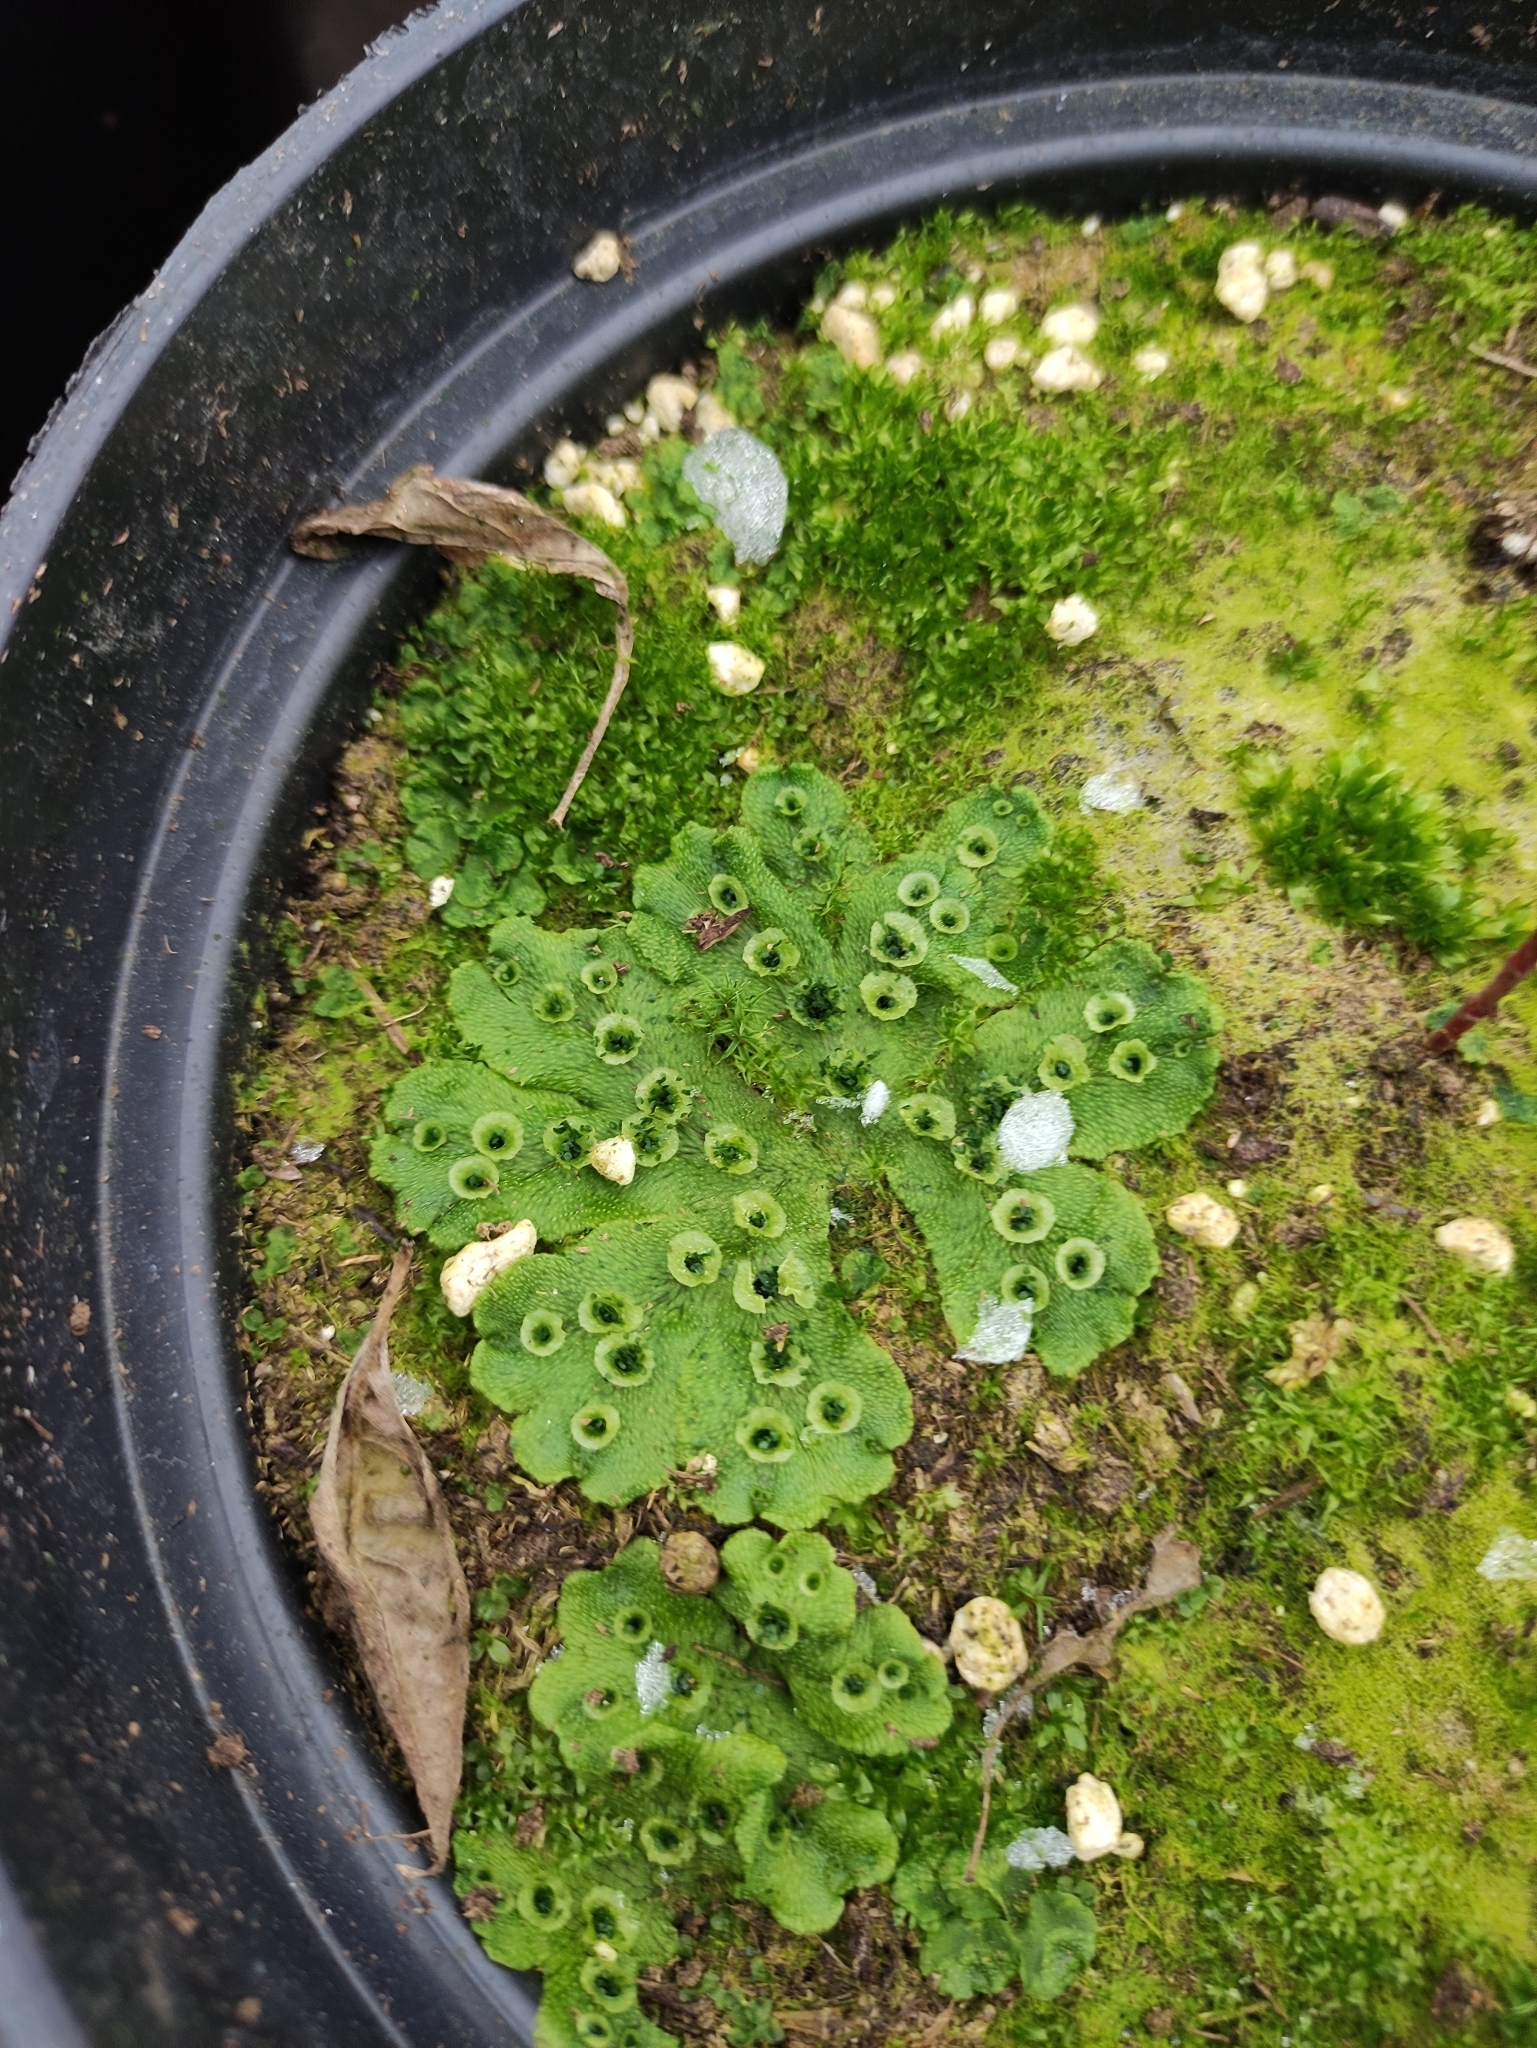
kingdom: Plantae
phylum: Marchantiophyta
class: Marchantiopsida
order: Marchantiales
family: Marchantiaceae
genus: Marchantia
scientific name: Marchantia polymorpha
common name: Common liverwort
